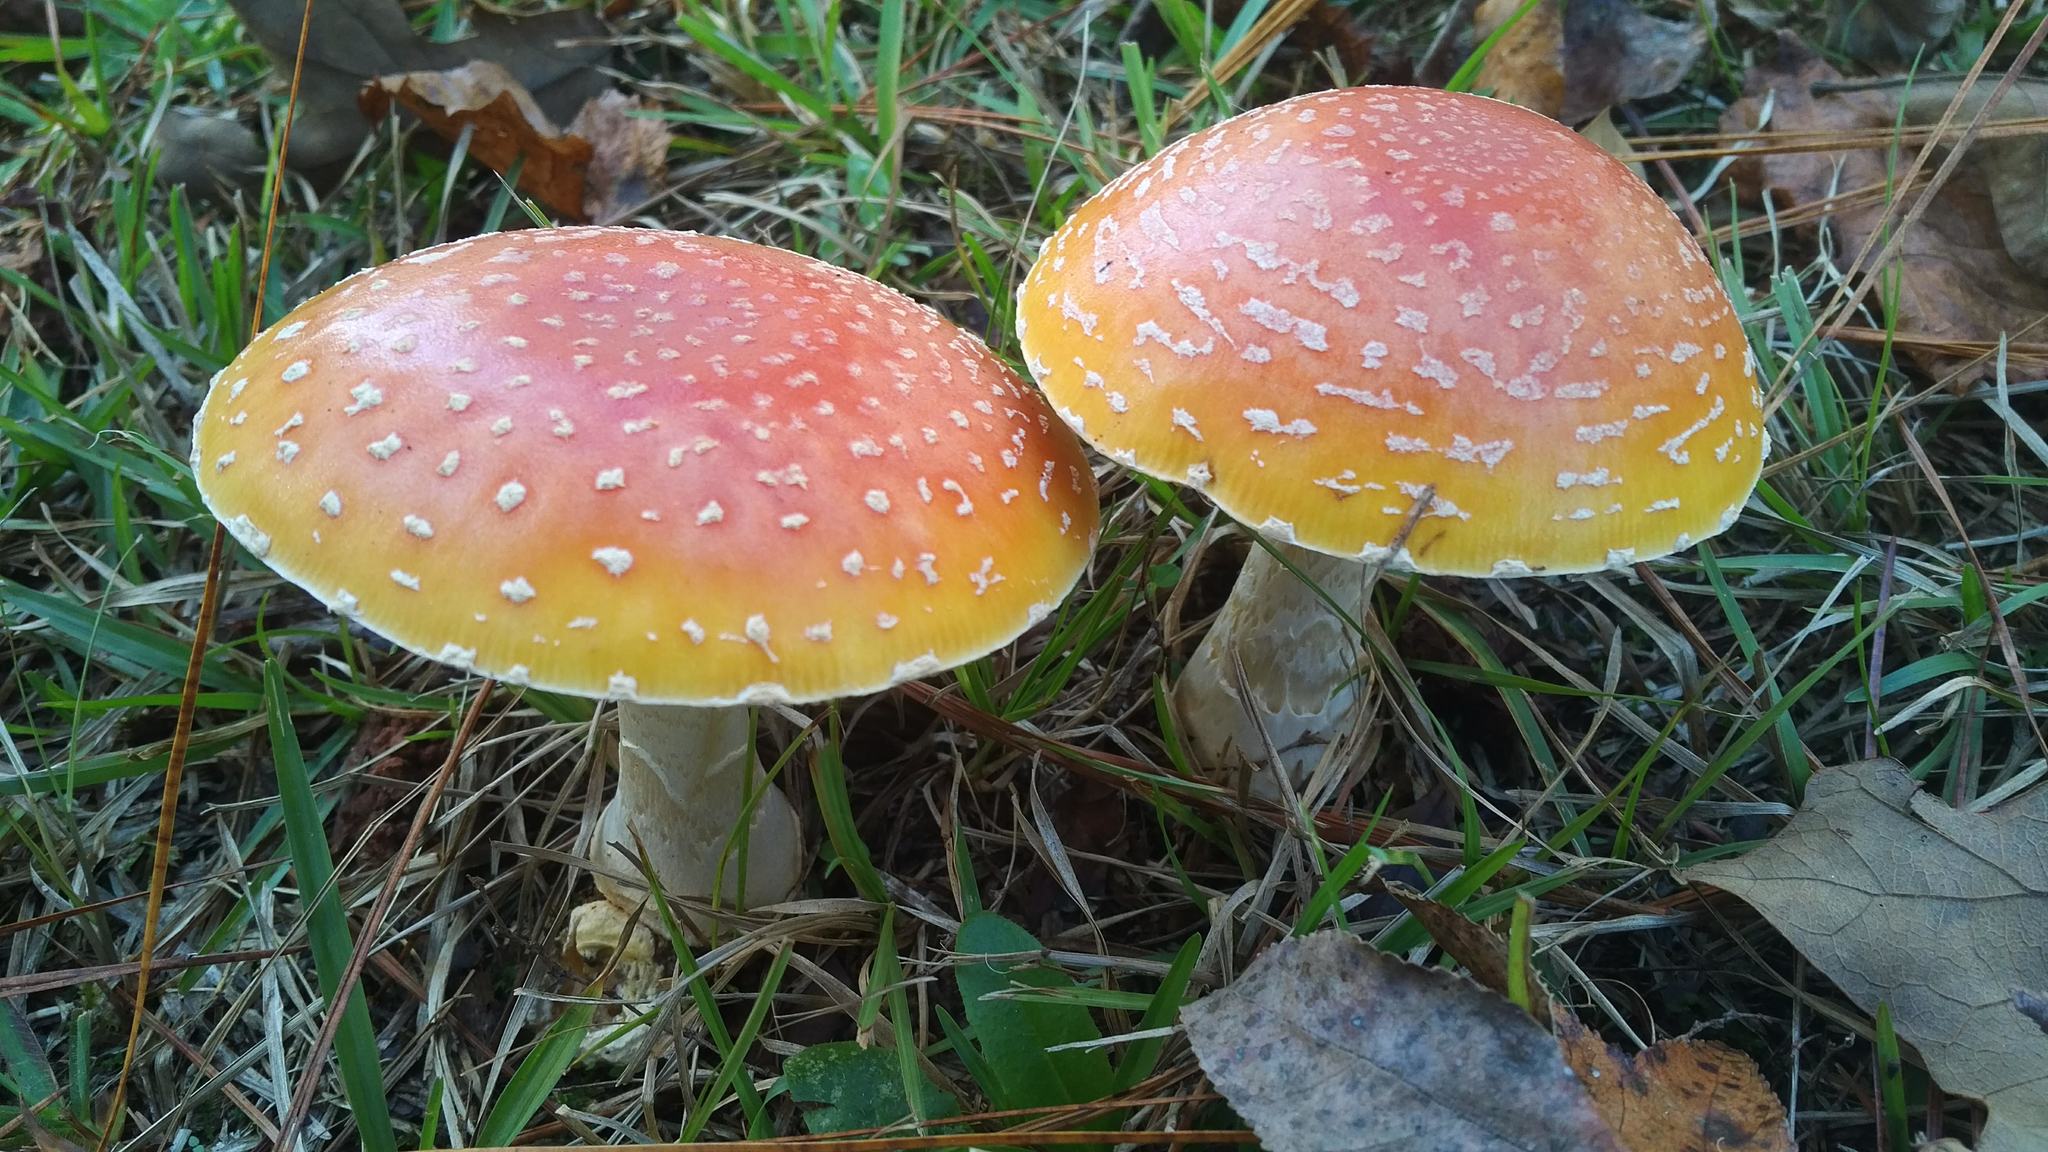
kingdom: Fungi
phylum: Basidiomycota
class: Agaricomycetes
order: Agaricales
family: Amanitaceae
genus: Amanita
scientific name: Amanita persicina
